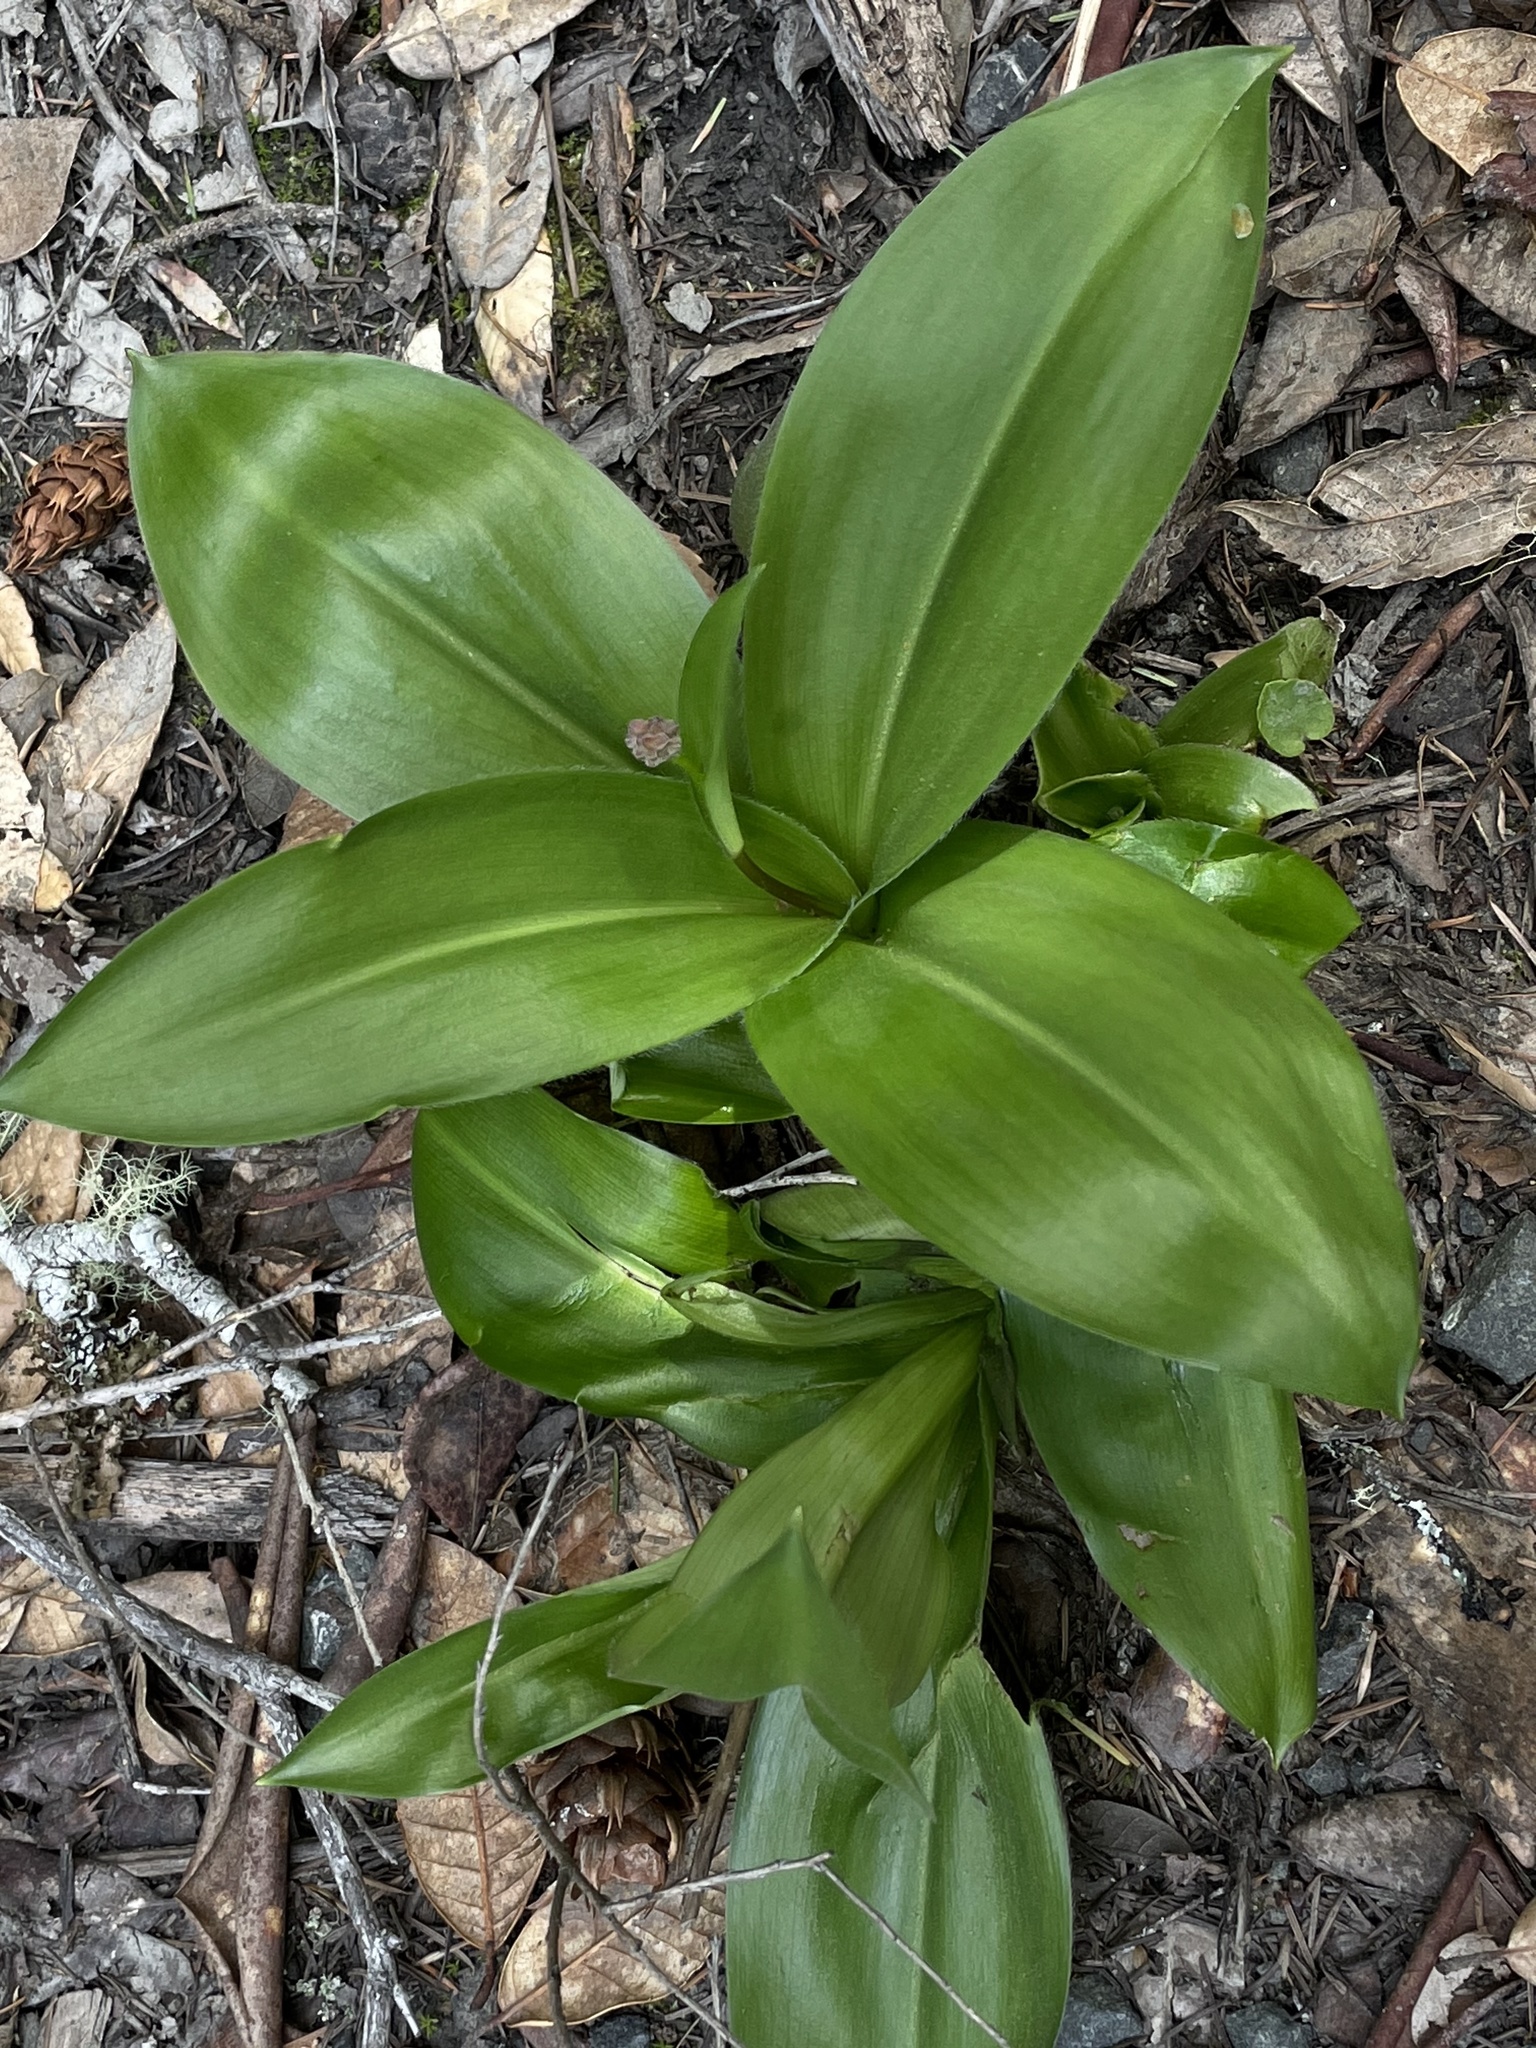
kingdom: Plantae
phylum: Tracheophyta
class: Liliopsida
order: Liliales
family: Liliaceae
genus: Clintonia
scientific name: Clintonia andrewsiana
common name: Red clintonia
